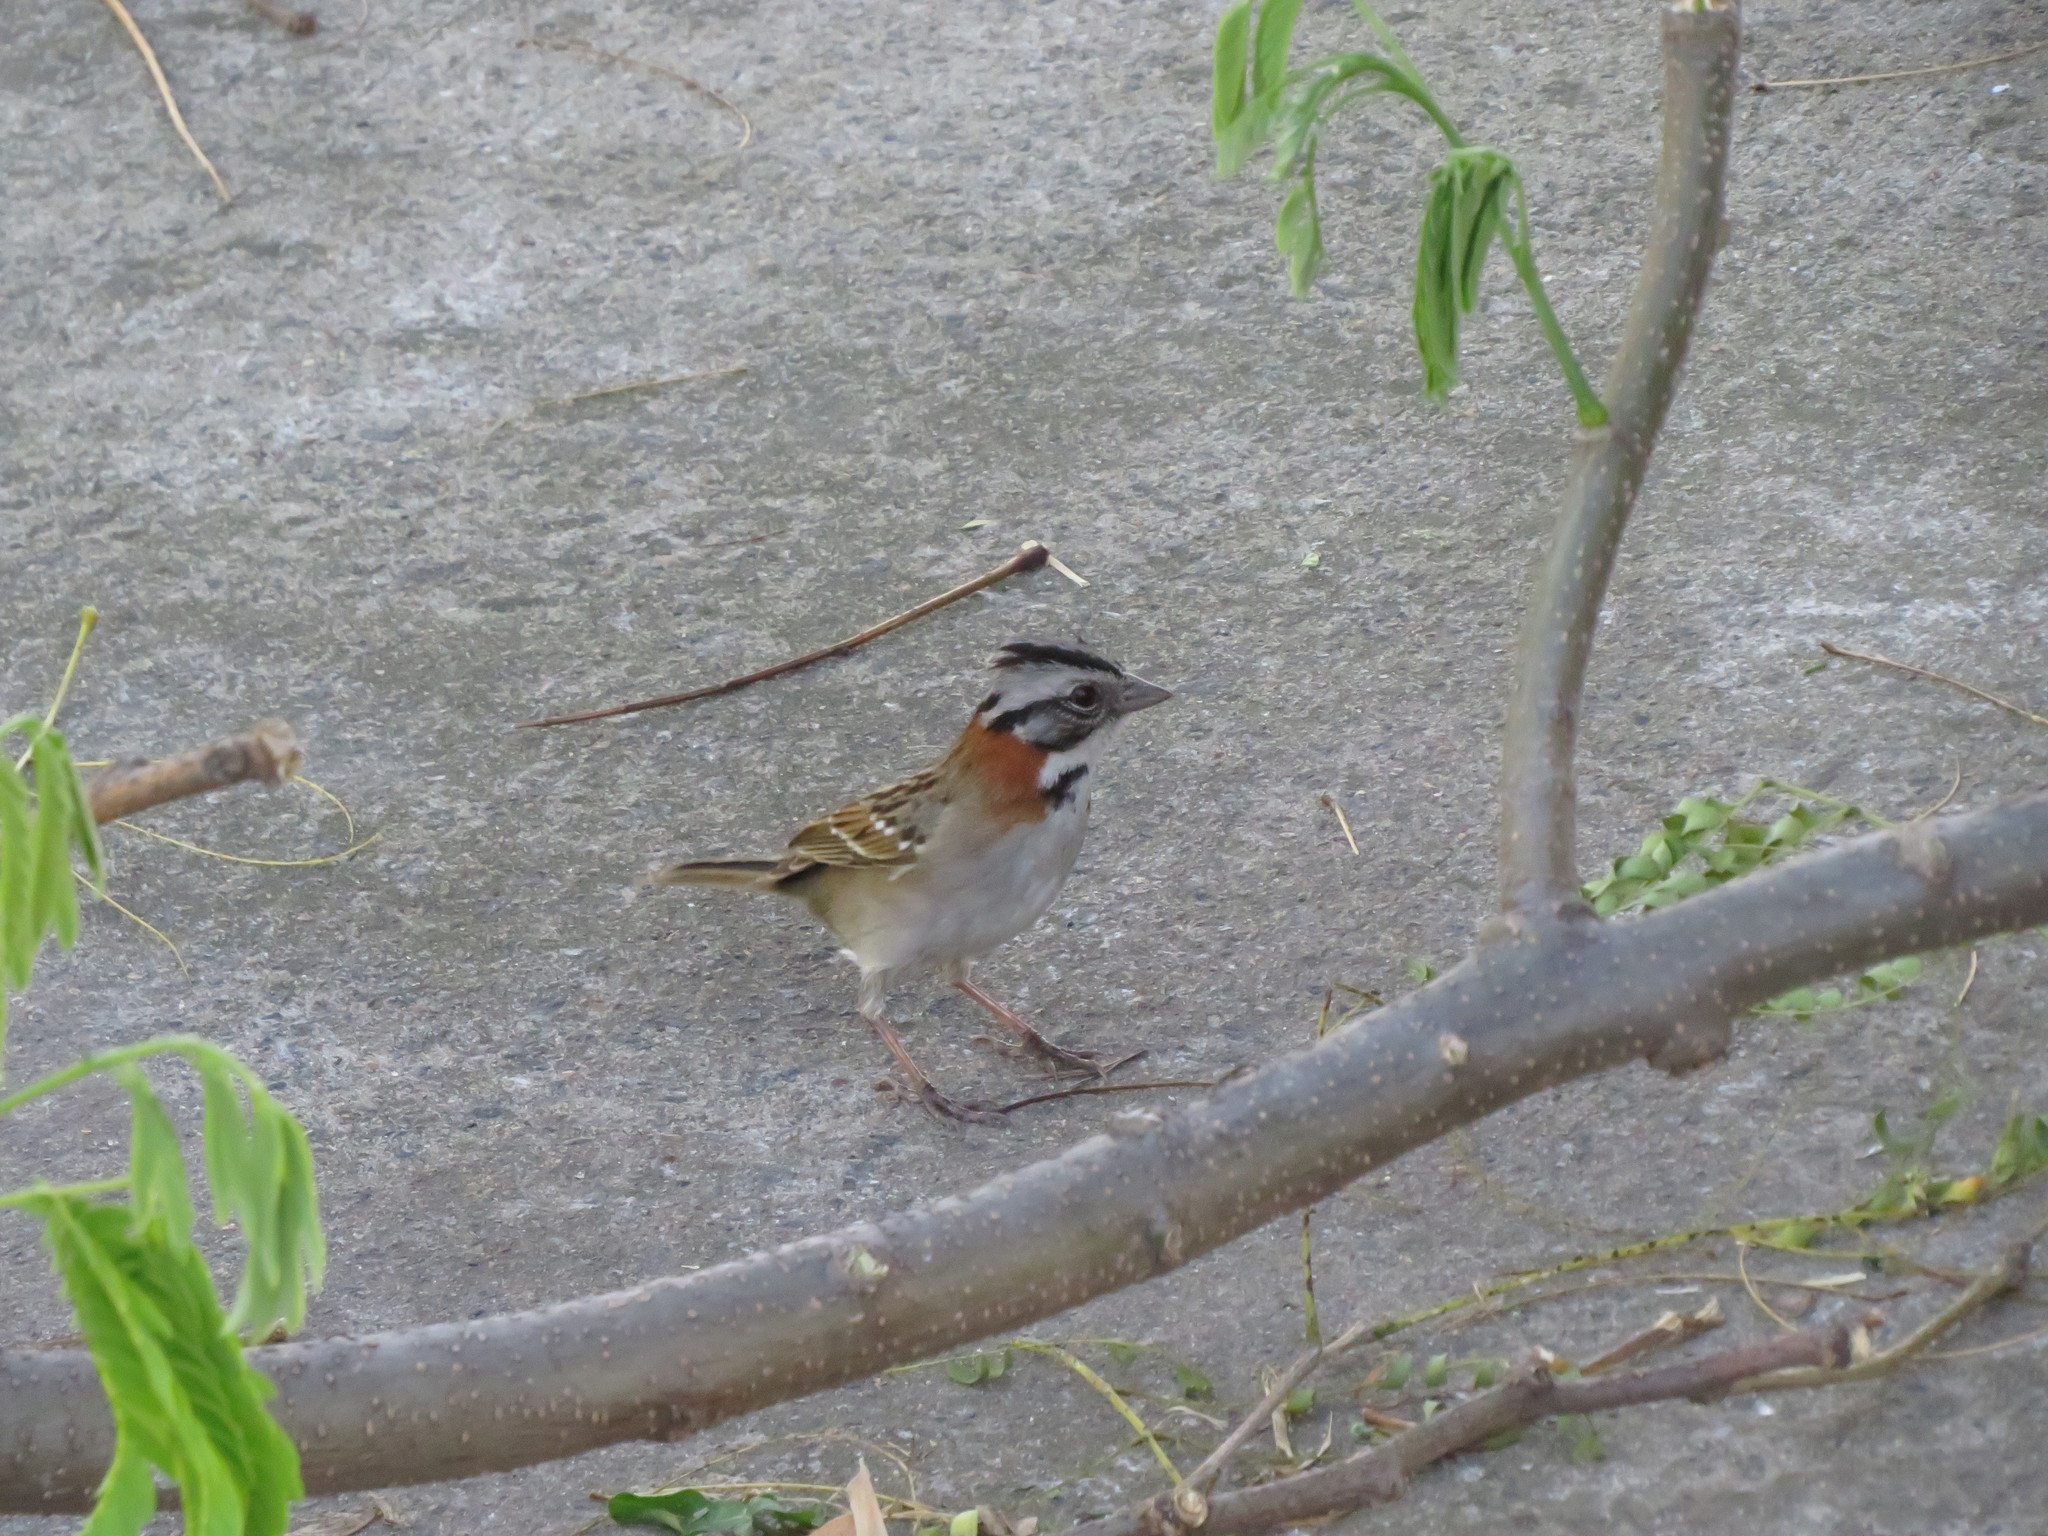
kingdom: Animalia
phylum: Chordata
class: Aves
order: Passeriformes
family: Passerellidae
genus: Zonotrichia
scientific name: Zonotrichia capensis
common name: Rufous-collared sparrow
